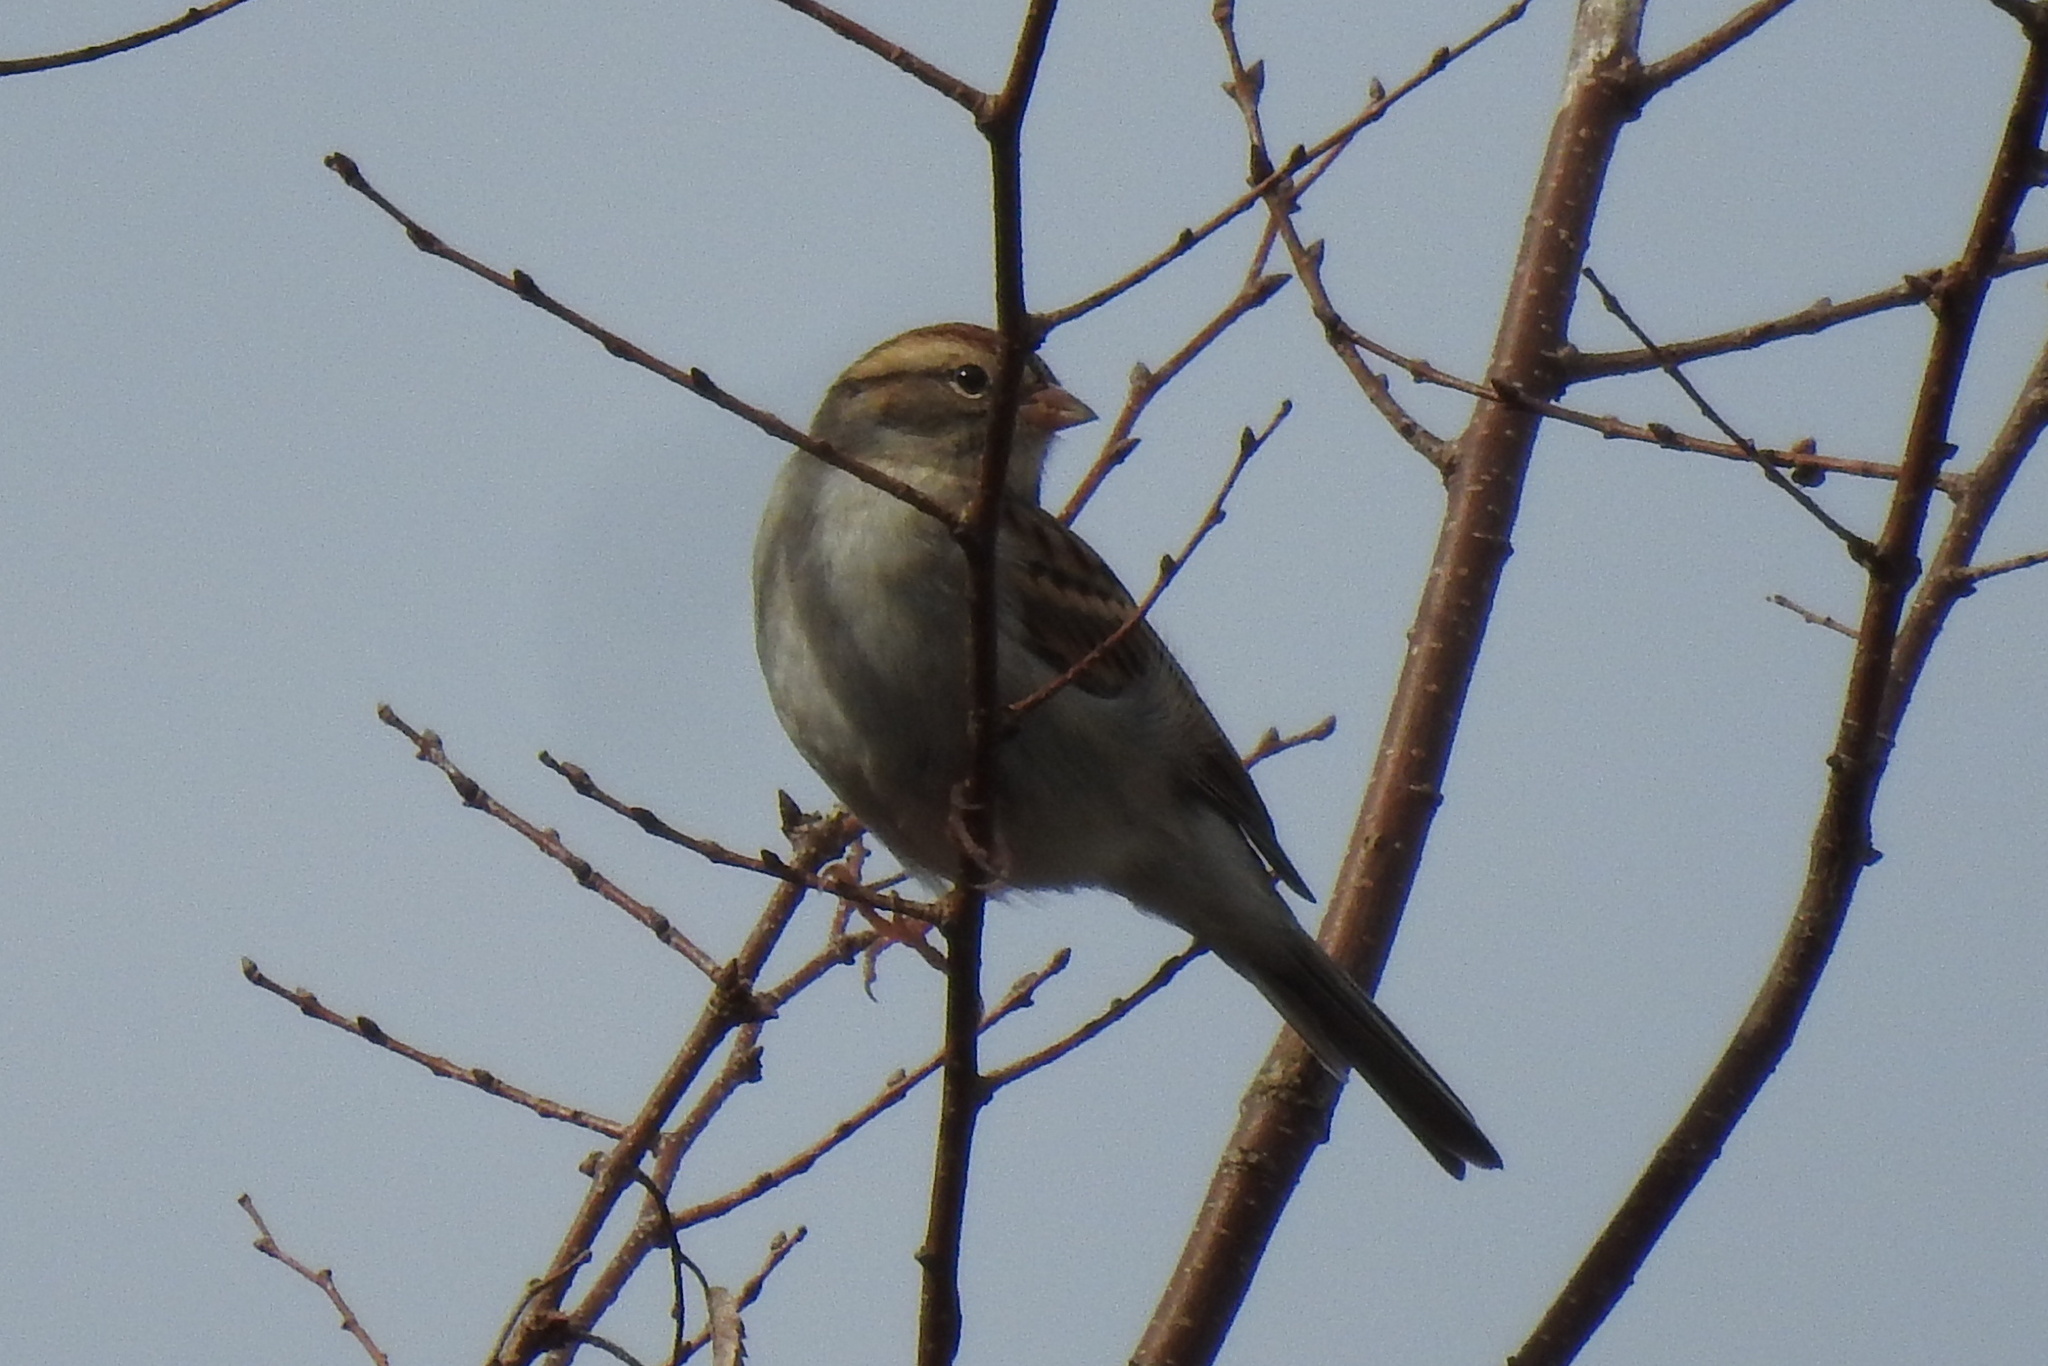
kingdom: Animalia
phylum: Chordata
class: Aves
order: Passeriformes
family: Passerellidae
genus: Spizella
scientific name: Spizella passerina
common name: Chipping sparrow
